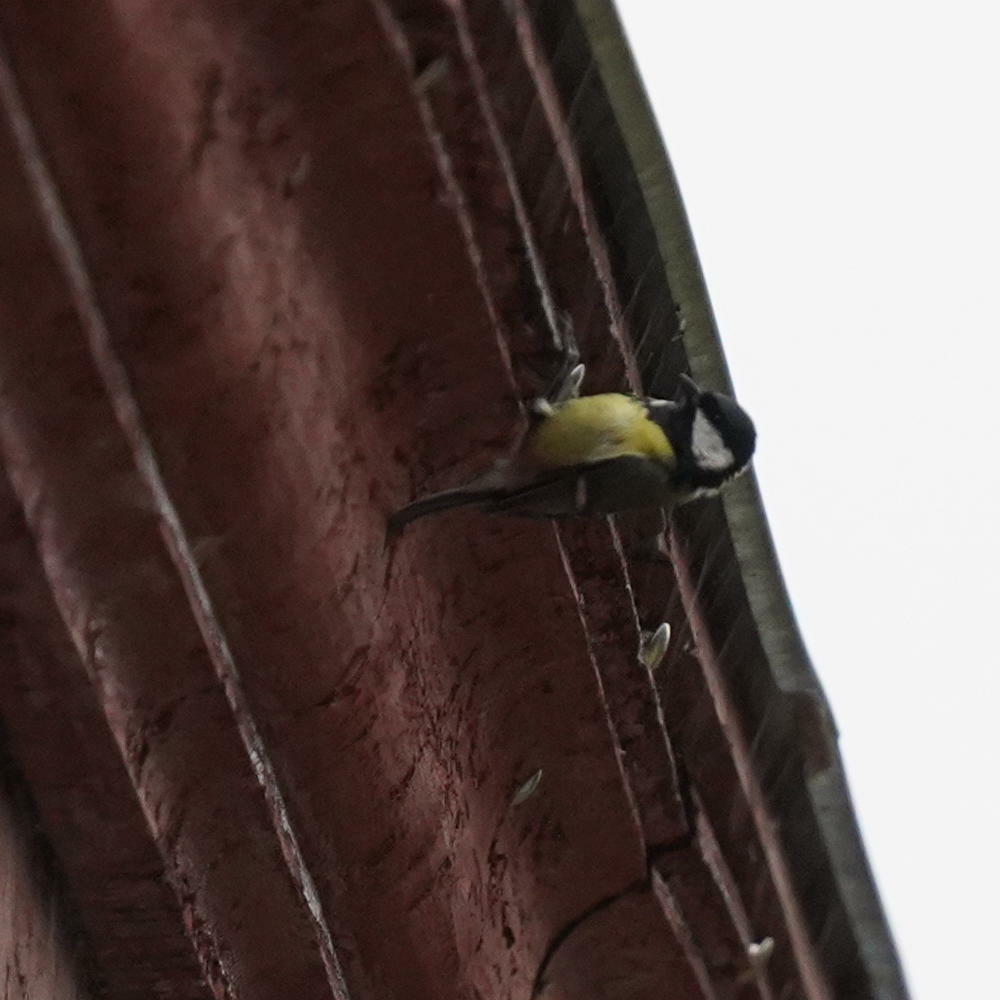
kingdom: Animalia
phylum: Chordata
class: Aves
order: Passeriformes
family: Paridae
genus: Parus
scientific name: Parus major
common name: Great tit
